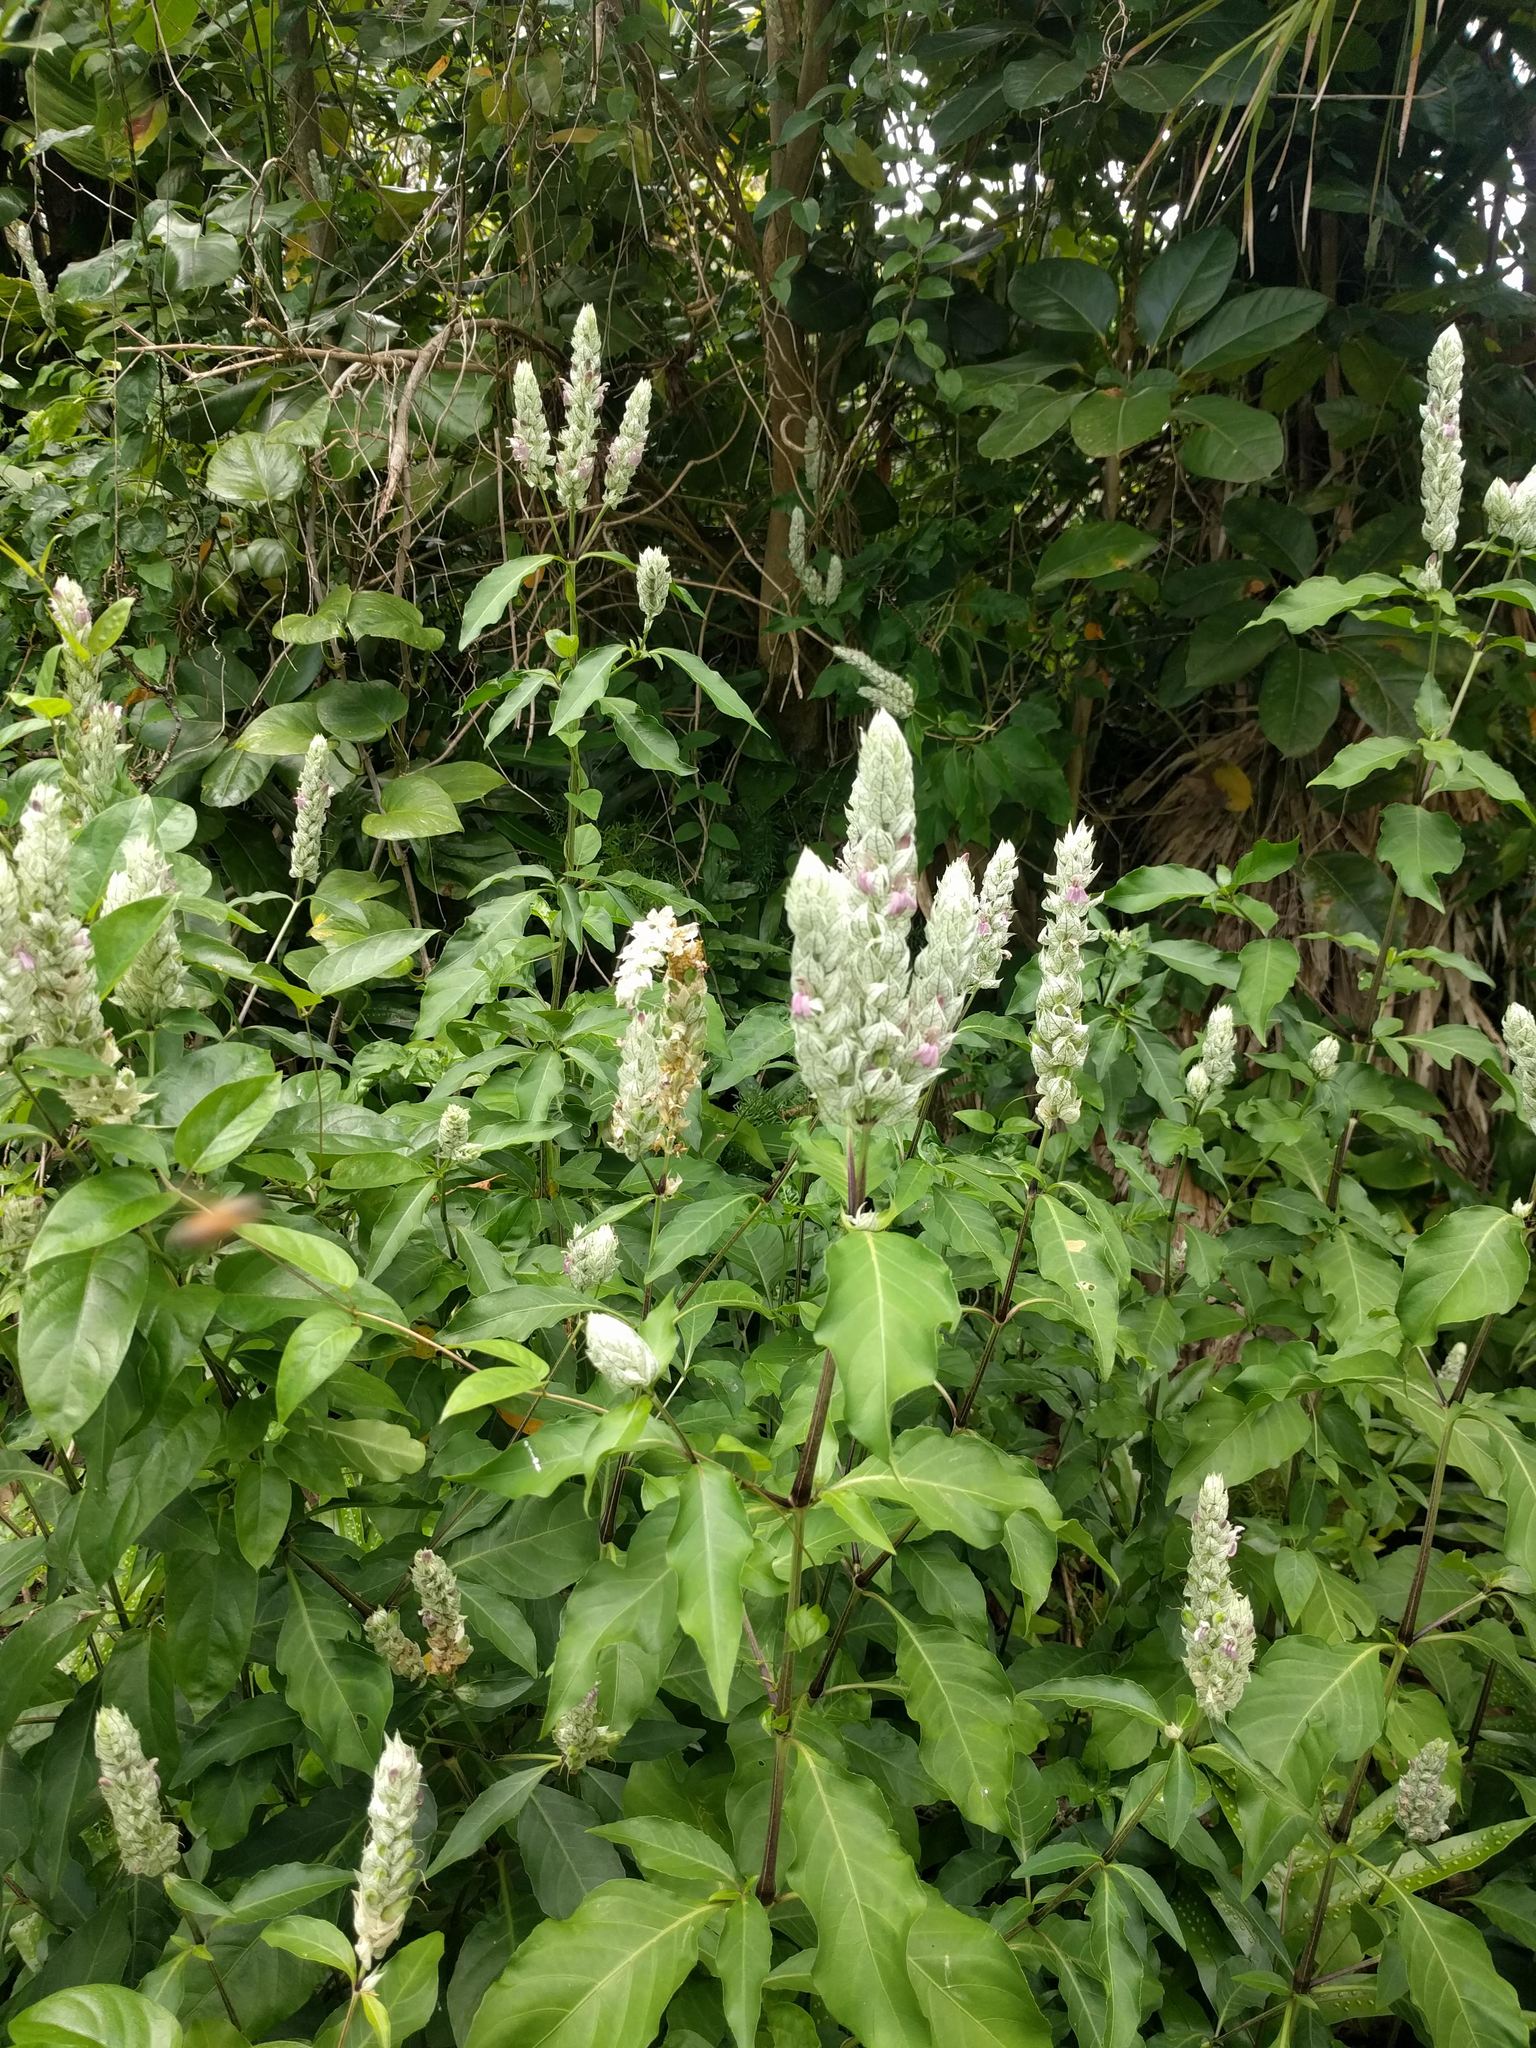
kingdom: Plantae
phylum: Tracheophyta
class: Magnoliopsida
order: Lamiales
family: Acanthaceae
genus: Justicia
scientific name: Justicia betonica
